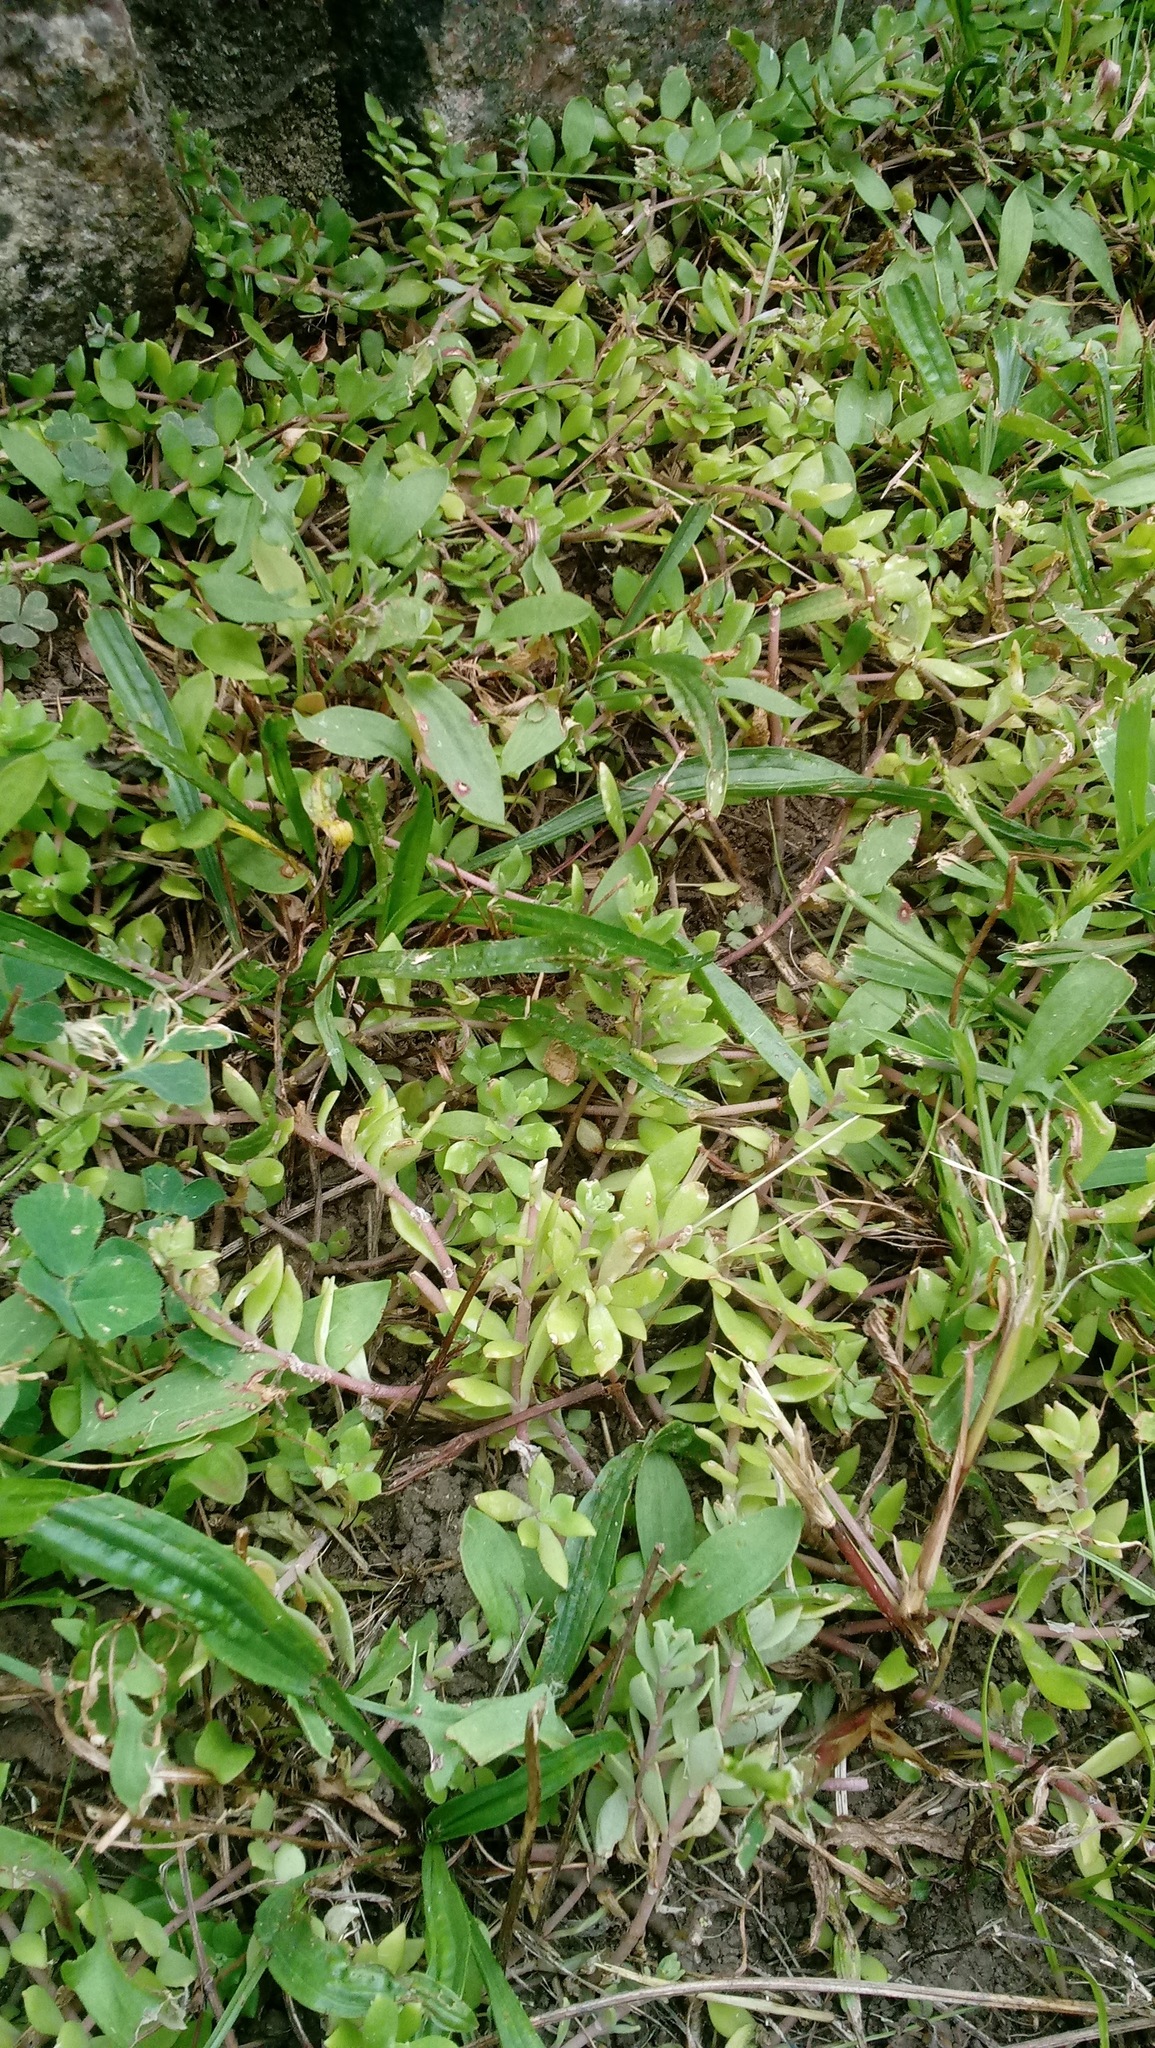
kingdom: Plantae
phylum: Tracheophyta
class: Magnoliopsida
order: Saxifragales
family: Crassulaceae
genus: Sedum
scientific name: Sedum sarmentosum
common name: Stringy stonecrop
